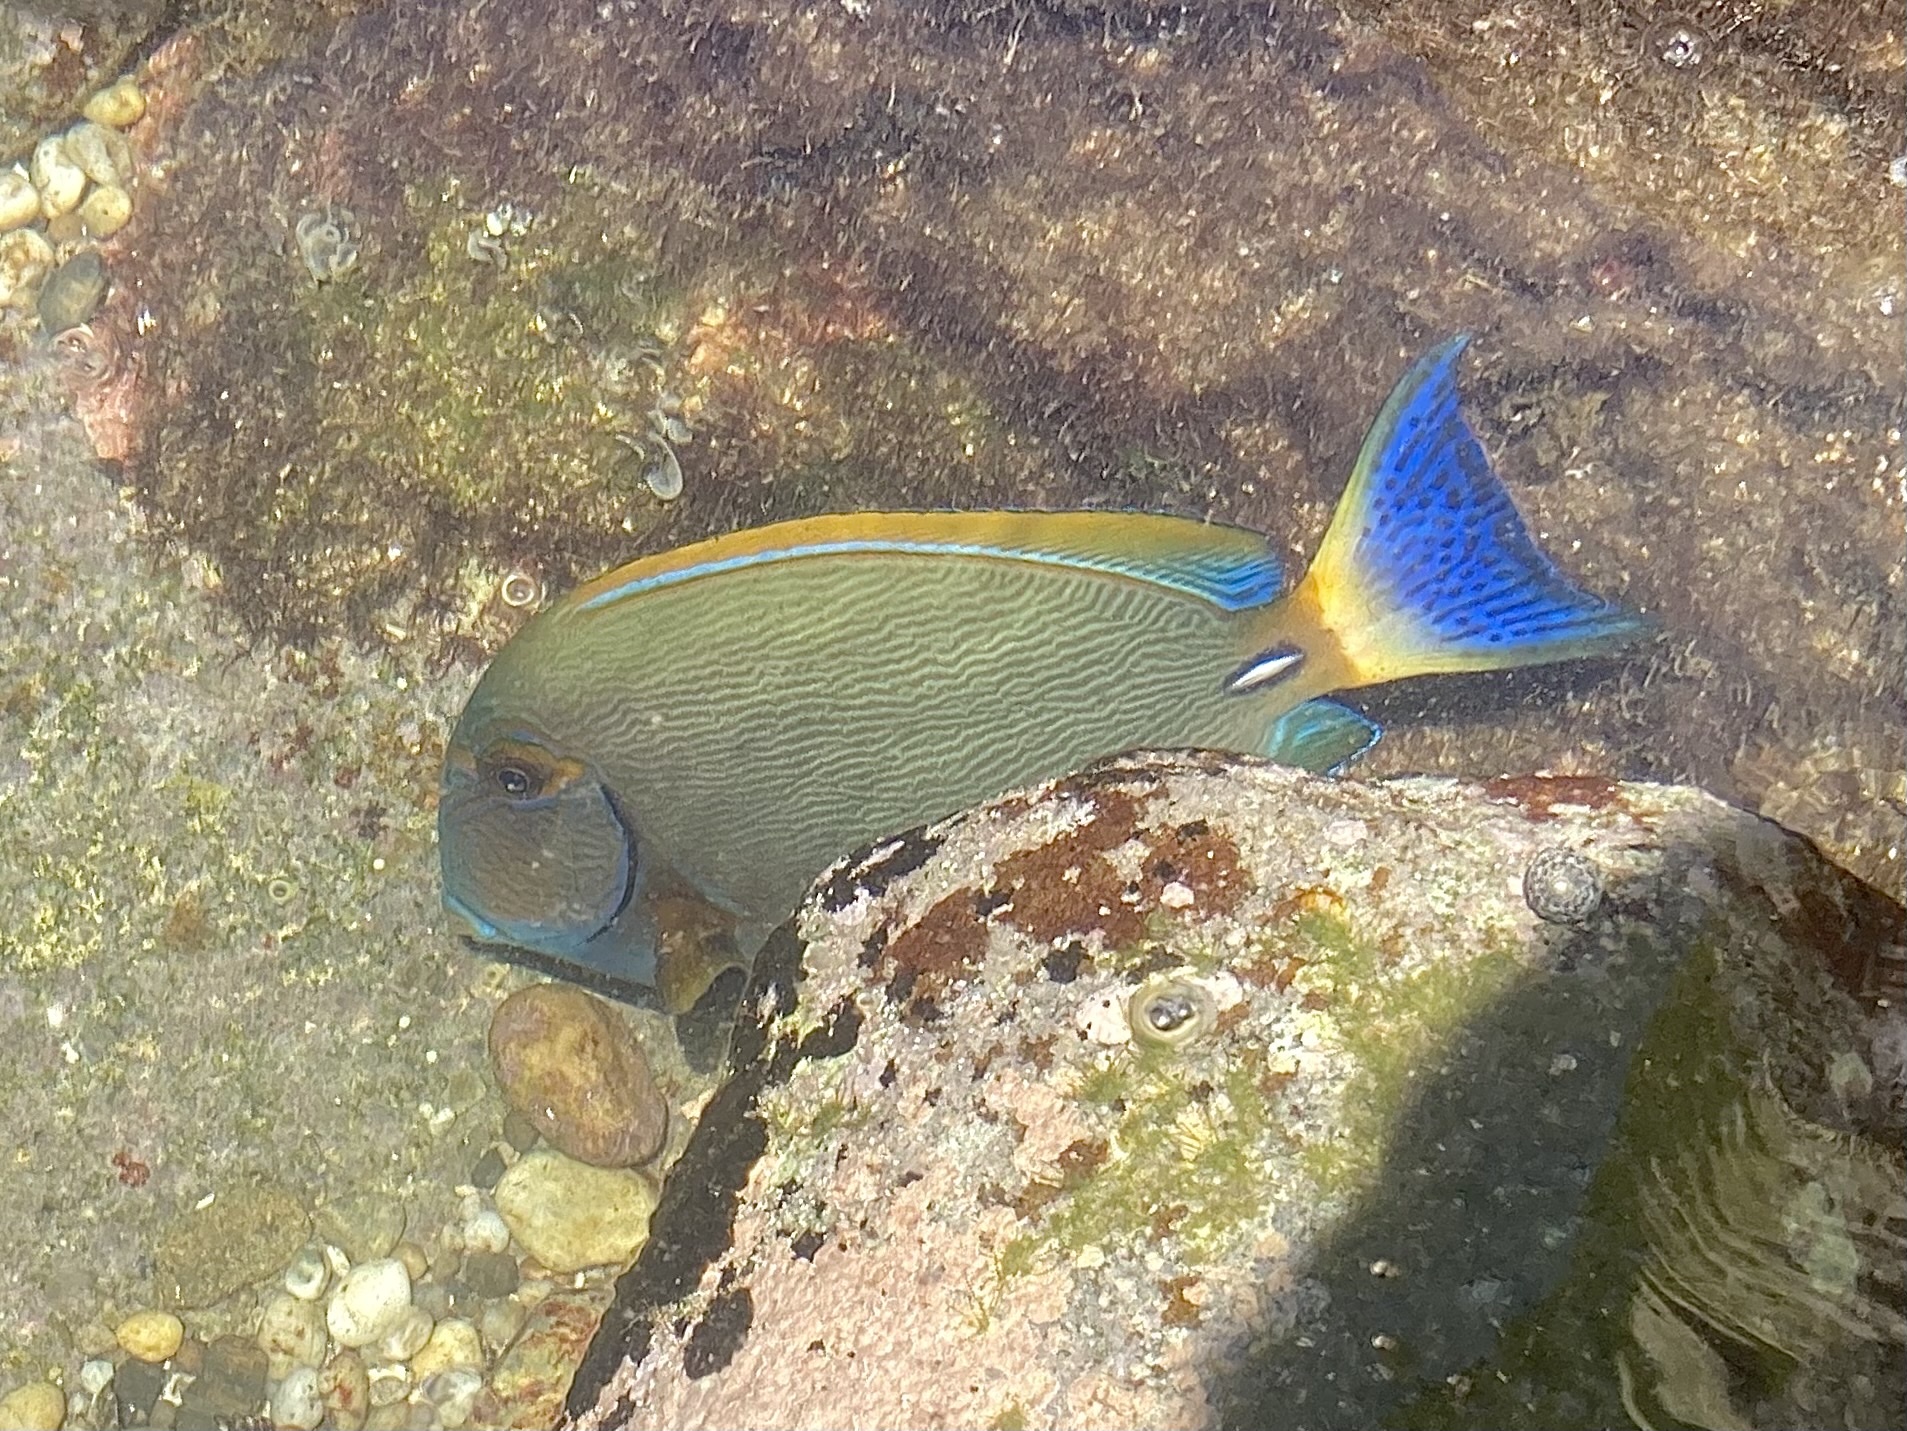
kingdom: Animalia
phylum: Chordata
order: Perciformes
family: Acanthuridae
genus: Acanthurus
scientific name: Acanthurus dussumieri
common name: Dussumier's surgeonfish
